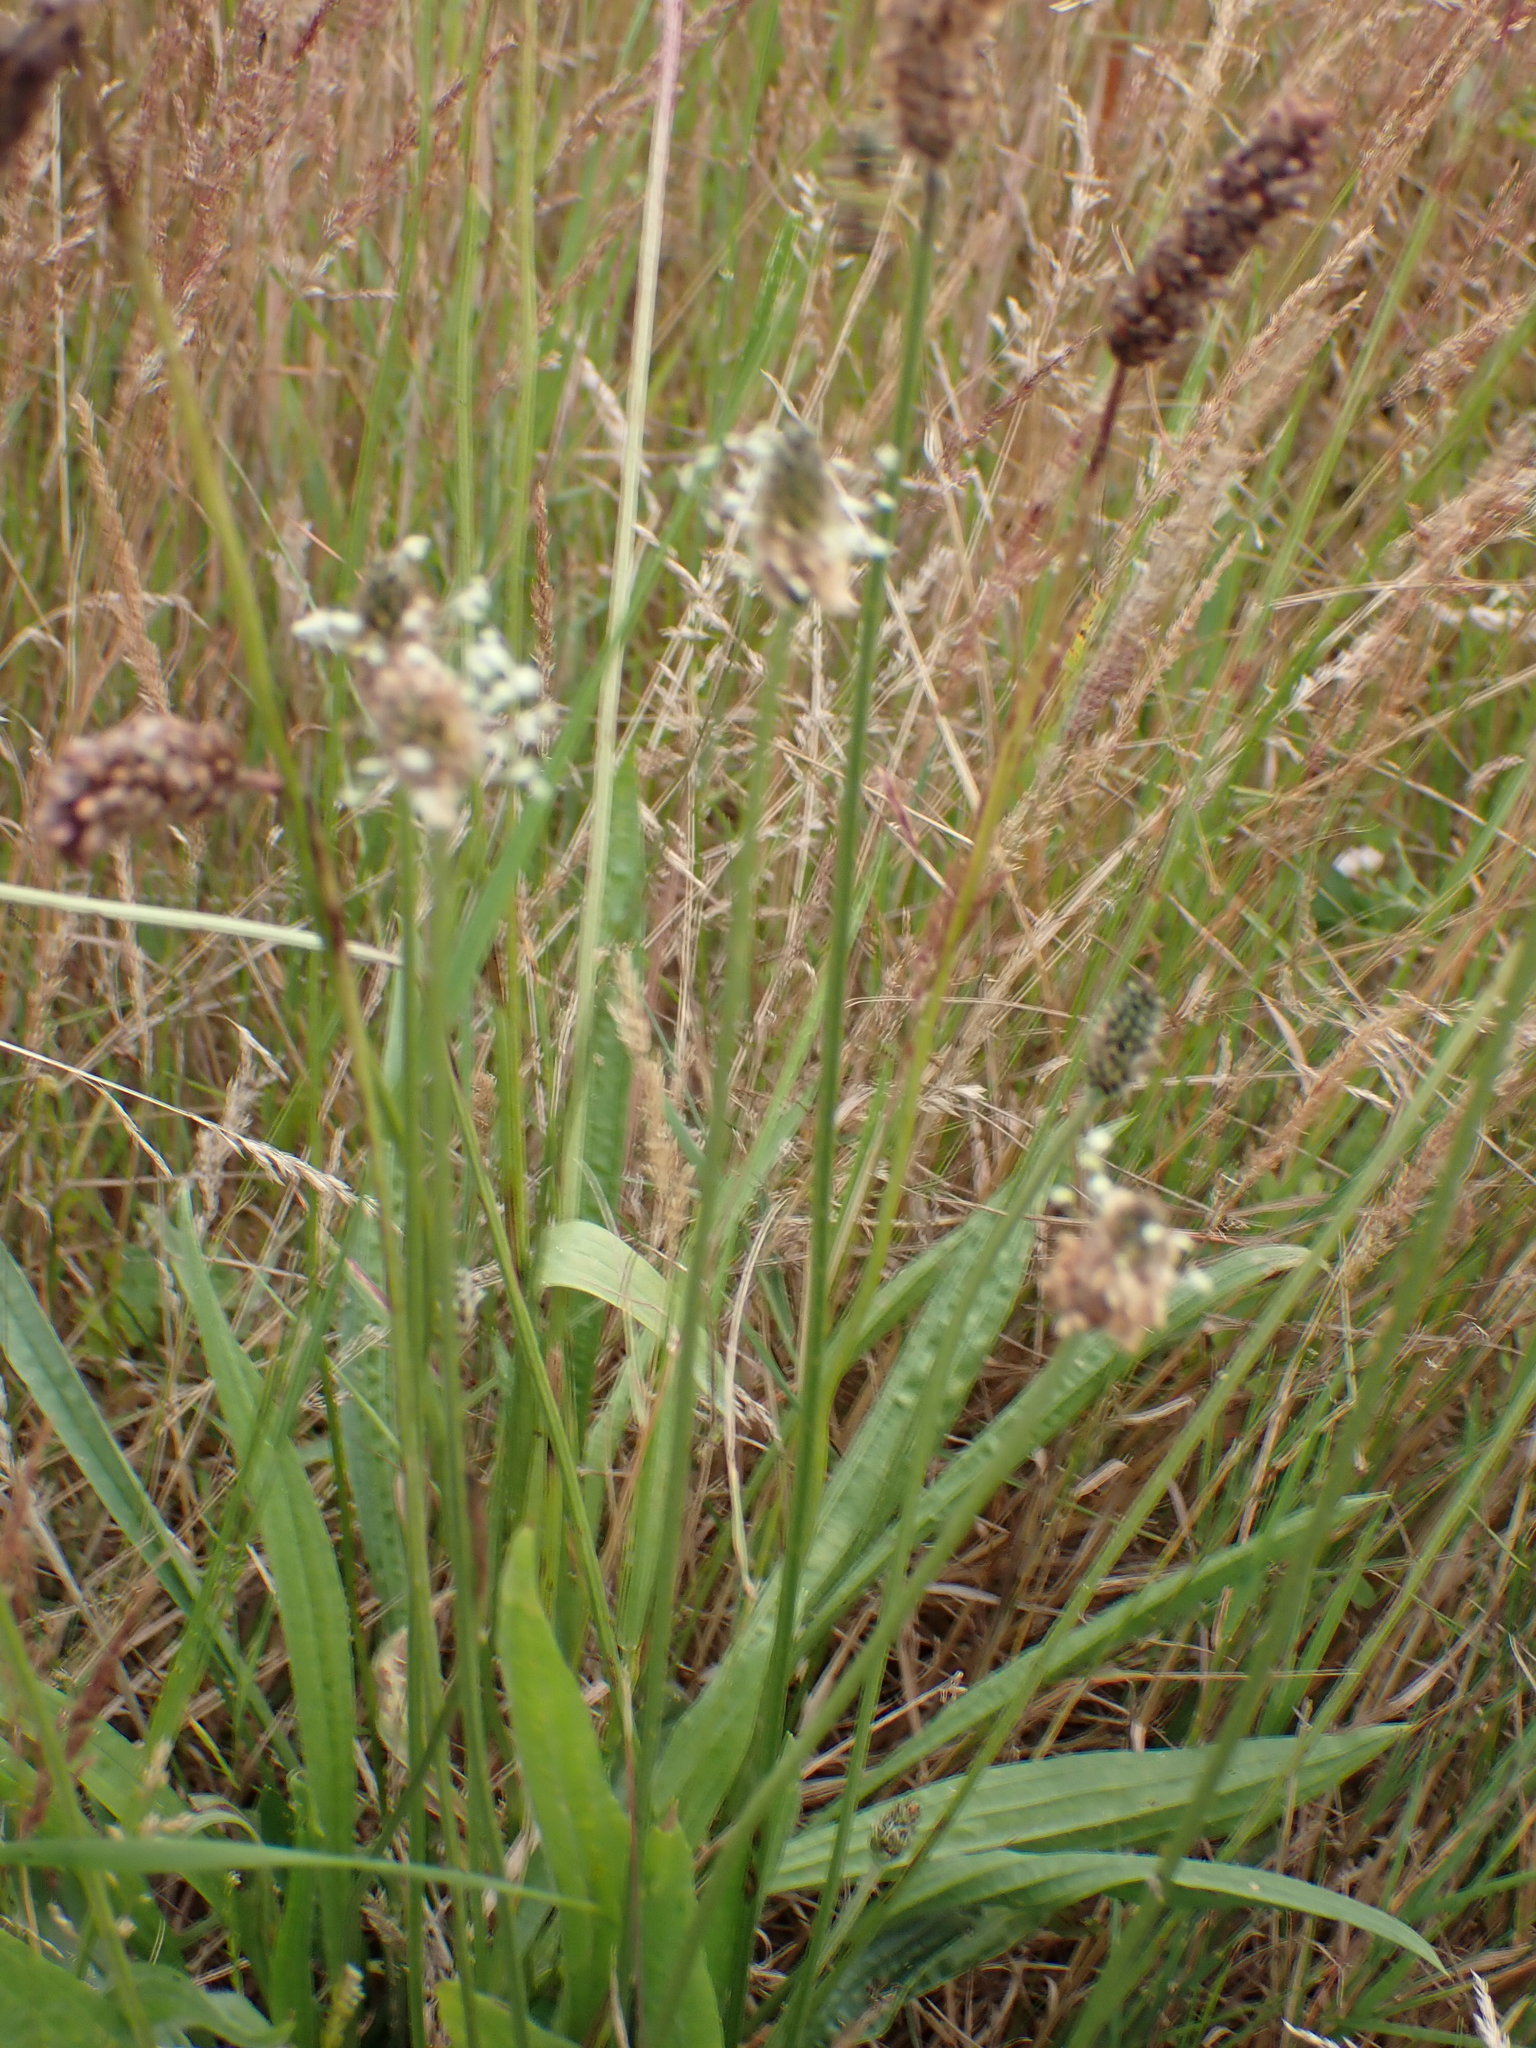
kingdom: Plantae
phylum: Tracheophyta
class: Magnoliopsida
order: Lamiales
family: Plantaginaceae
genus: Plantago
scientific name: Plantago lanceolata
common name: Ribwort plantain
